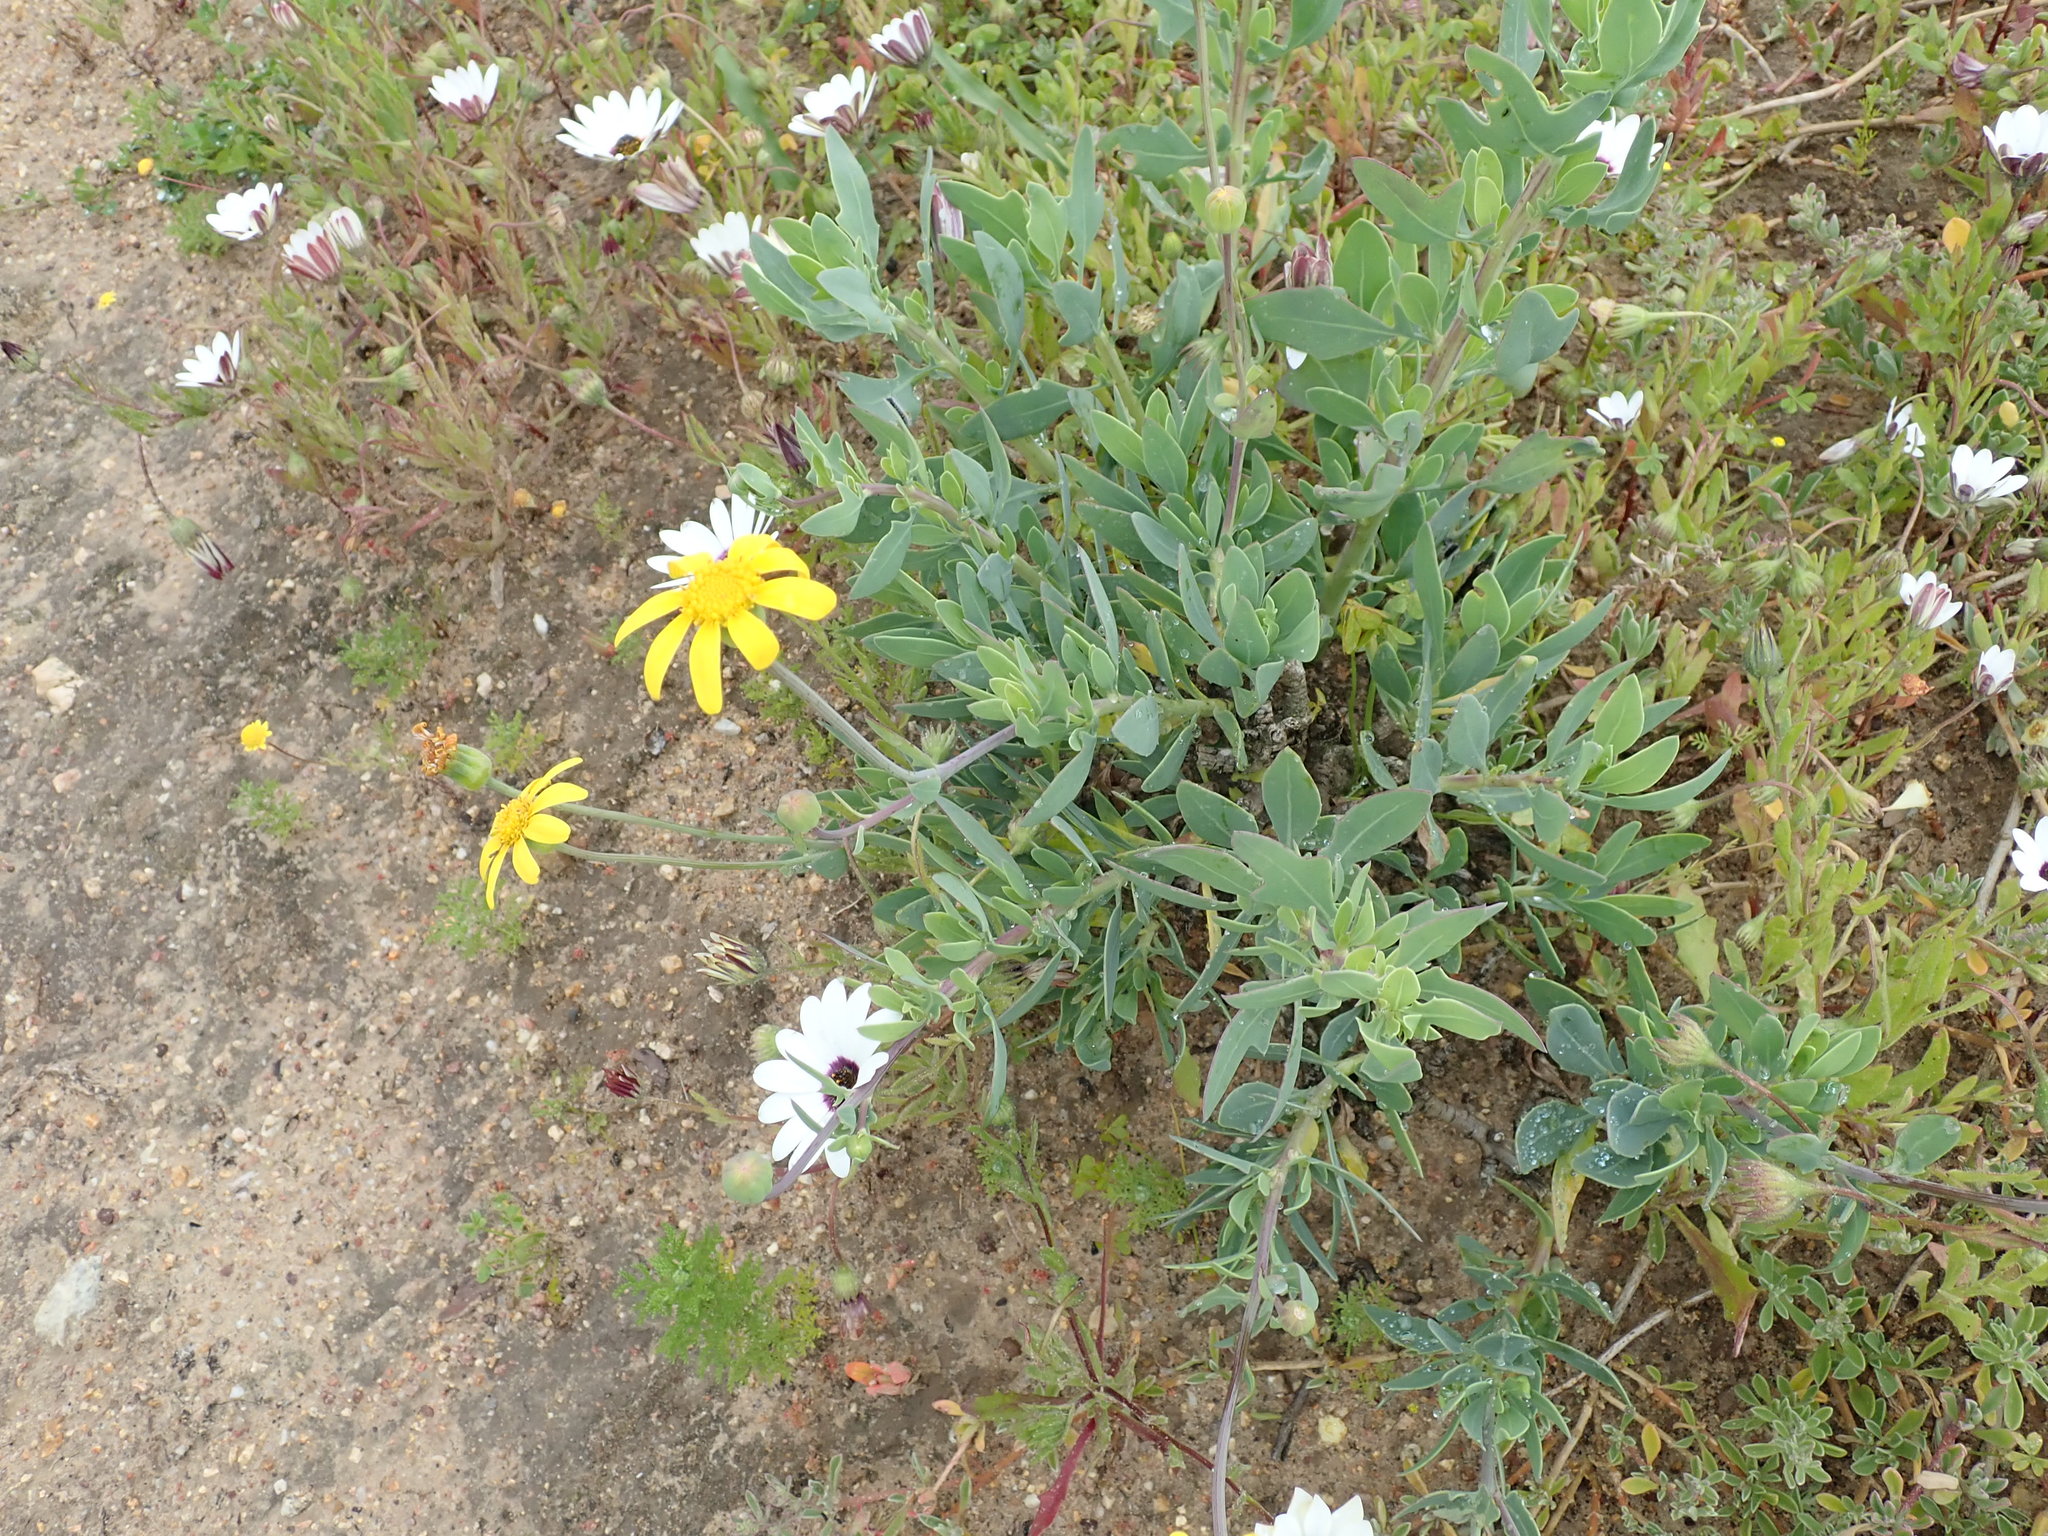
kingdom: Plantae
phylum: Tracheophyta
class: Magnoliopsida
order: Asterales
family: Asteraceae
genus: Othonna
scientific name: Othonna coronopifolia
